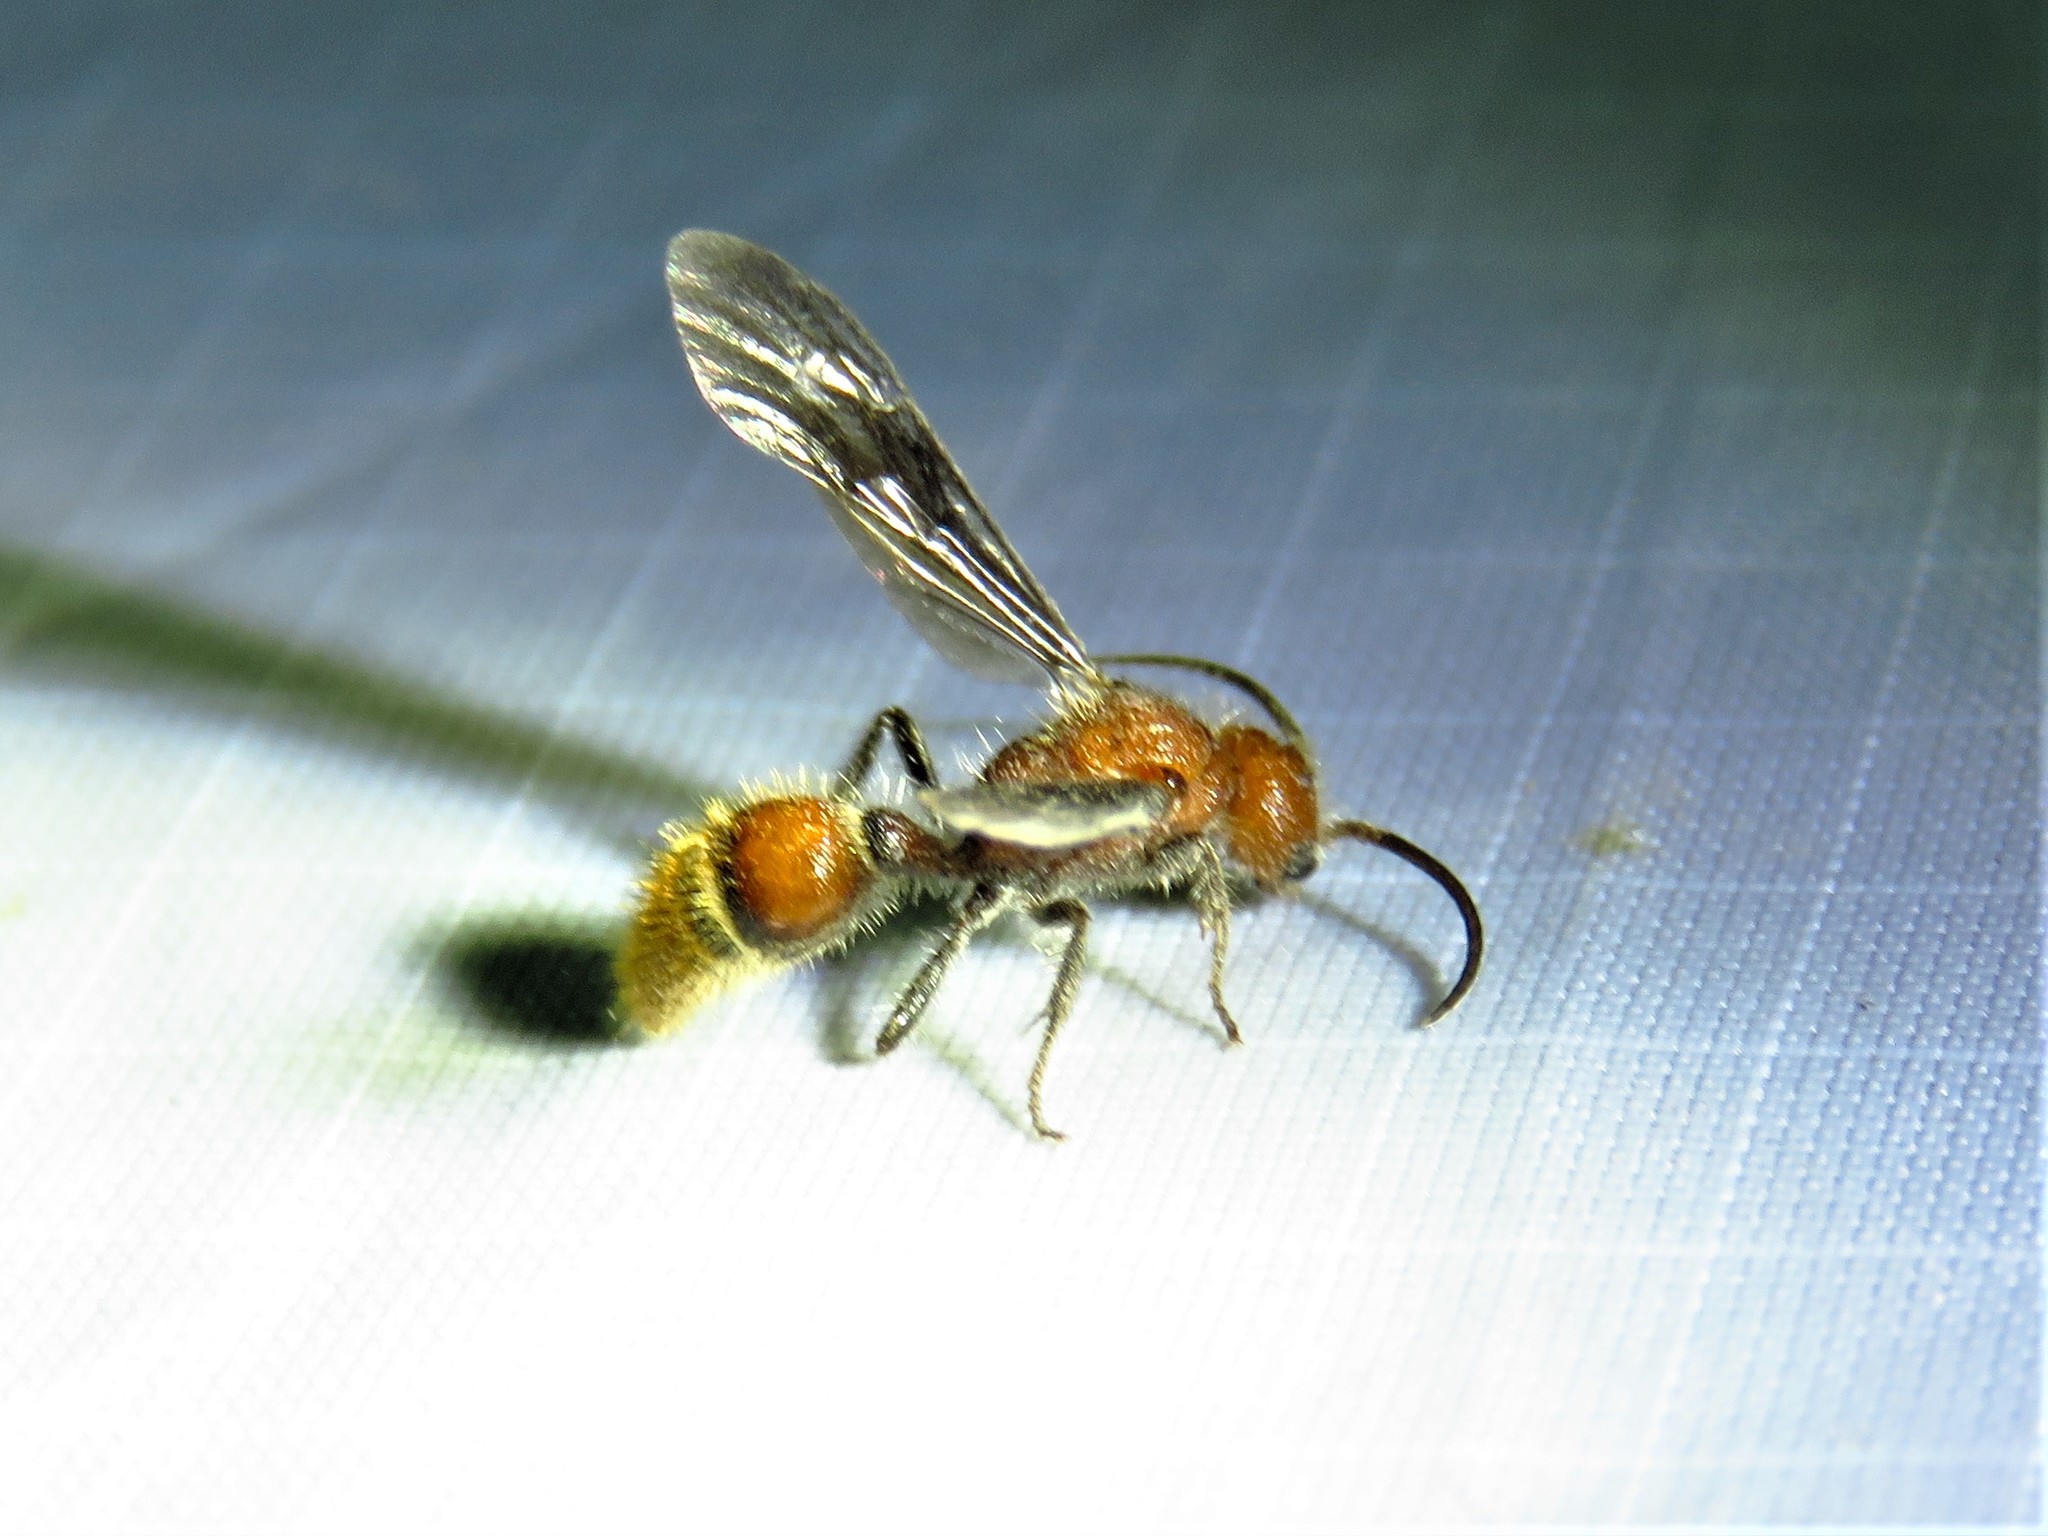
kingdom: Animalia
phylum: Arthropoda
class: Insecta
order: Hymenoptera
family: Mutillidae
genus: Sphaeropthalma
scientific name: Sphaeropthalma
